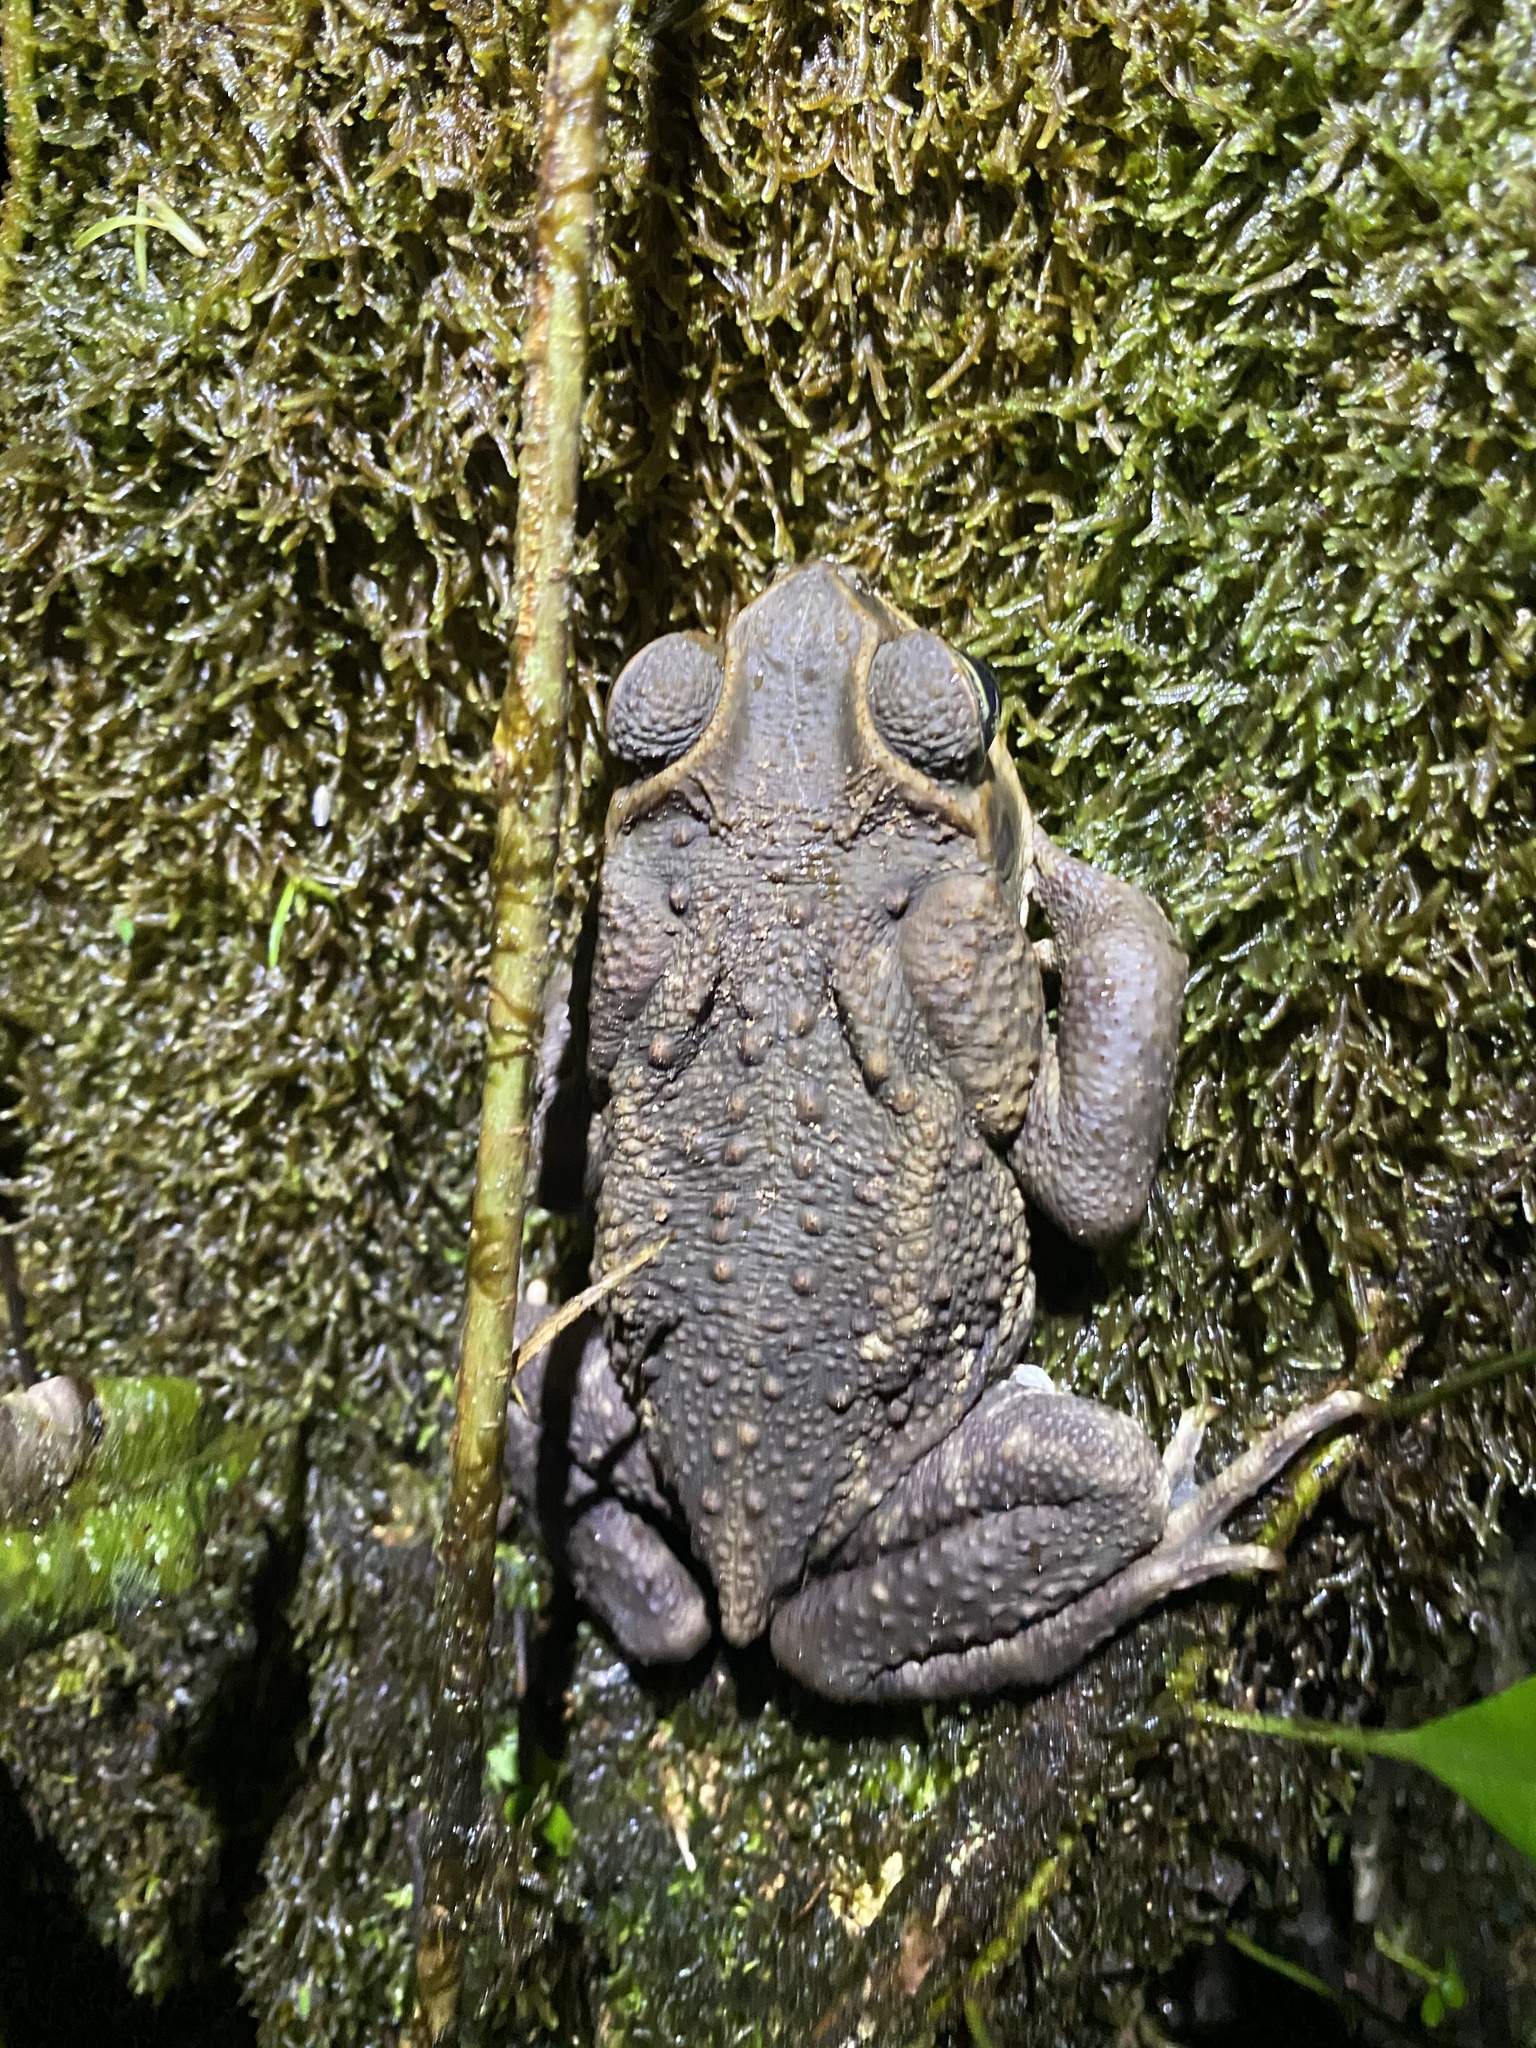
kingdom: Animalia
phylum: Chordata
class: Amphibia
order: Anura
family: Bufonidae
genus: Rhinella
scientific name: Rhinella horribilis
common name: Mesoamerican cane toad
